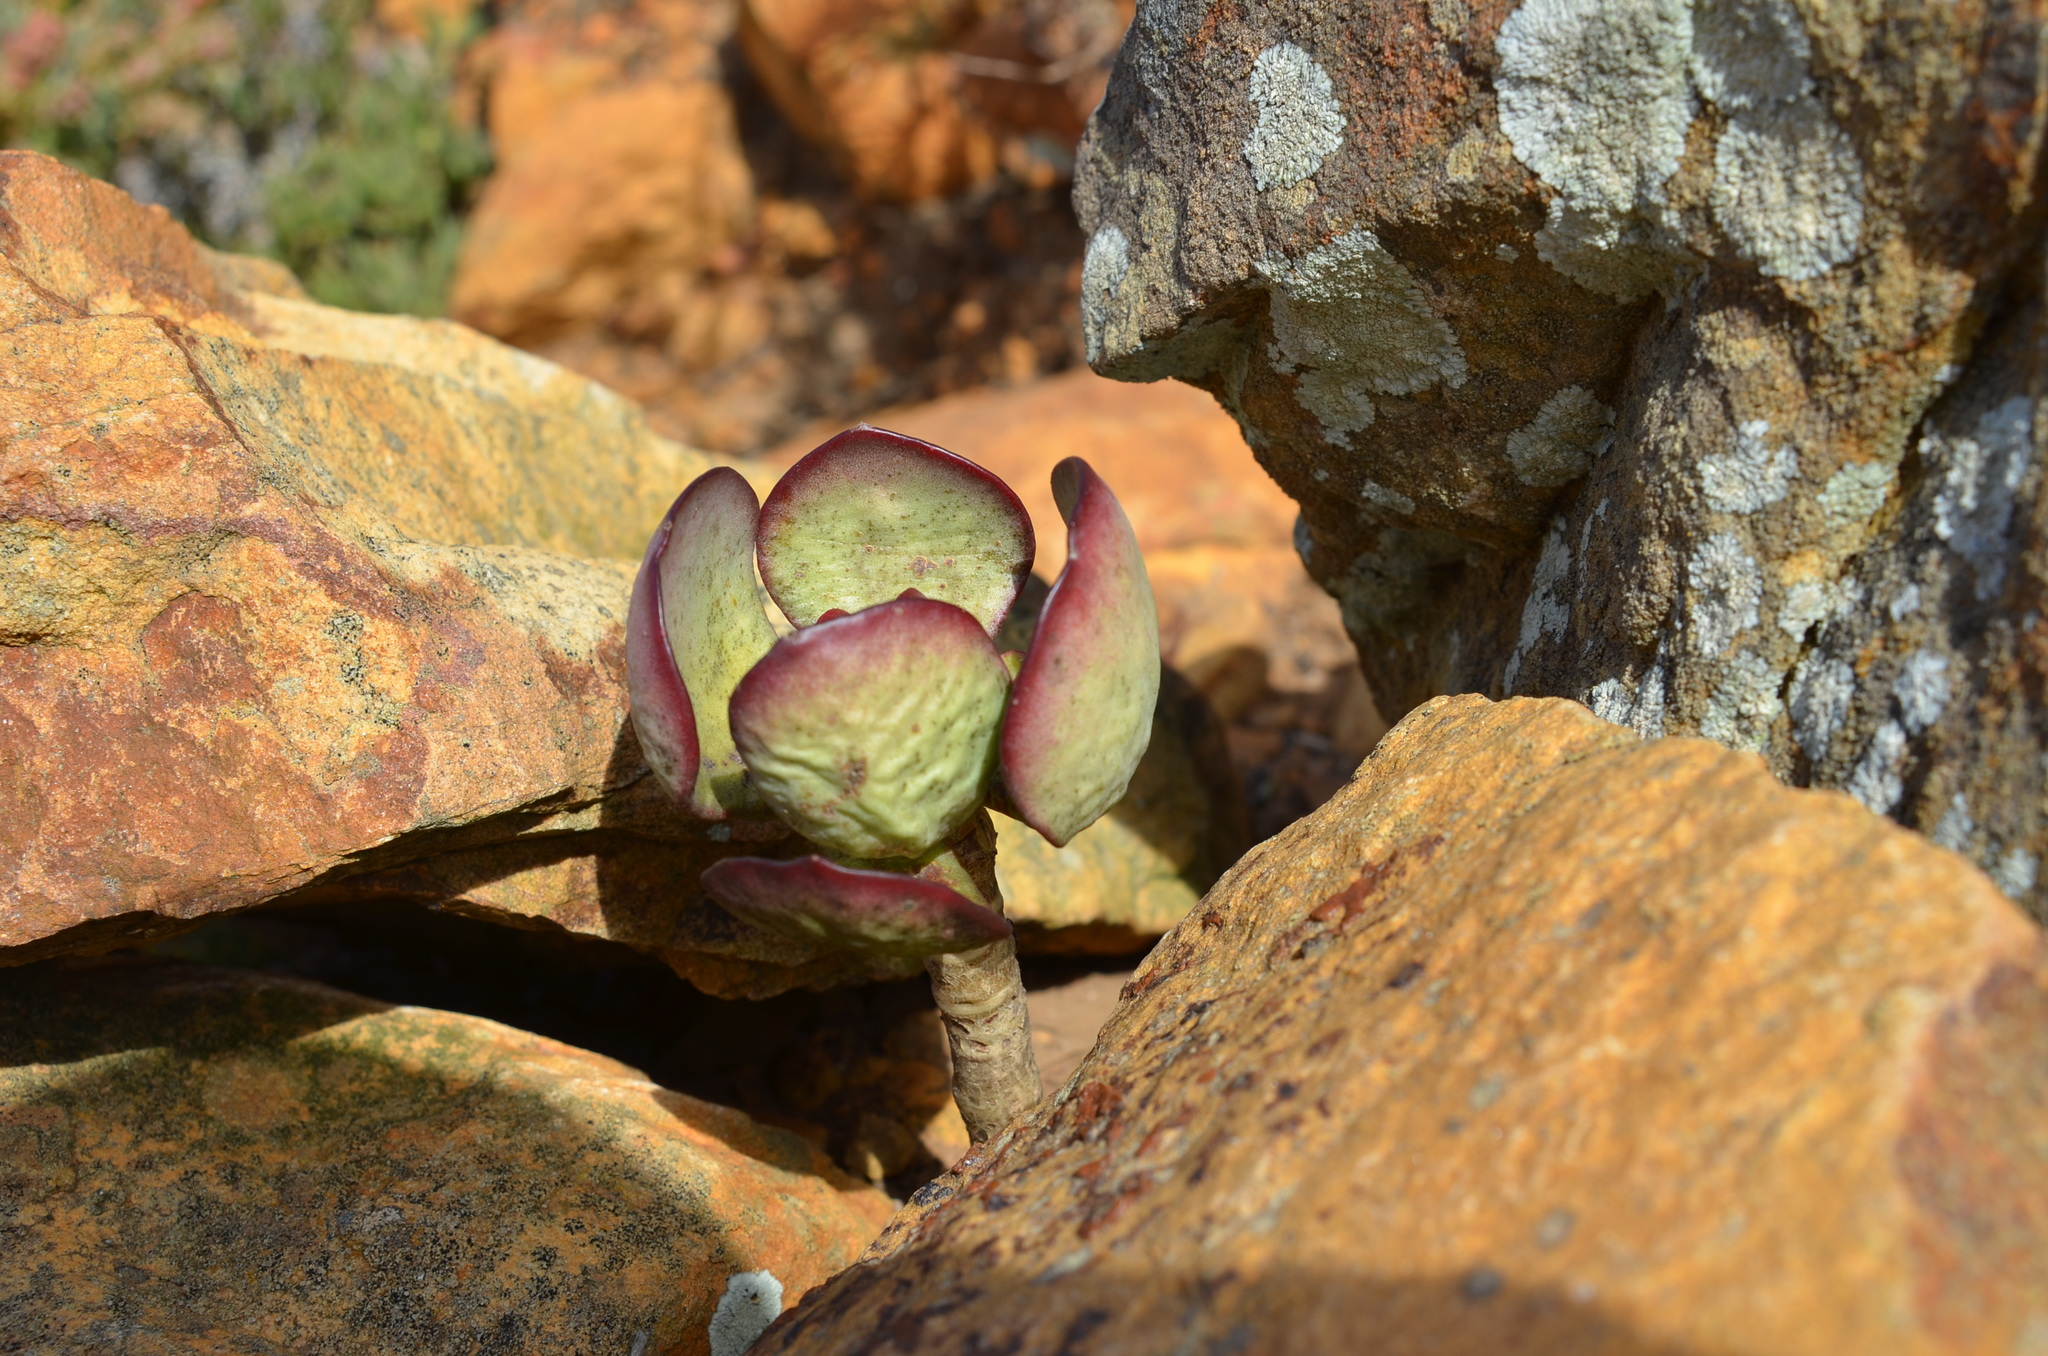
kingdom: Plantae
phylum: Tracheophyta
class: Magnoliopsida
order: Saxifragales
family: Crassulaceae
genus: Cotyledon
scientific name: Cotyledon orbiculata
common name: Pig's ear
